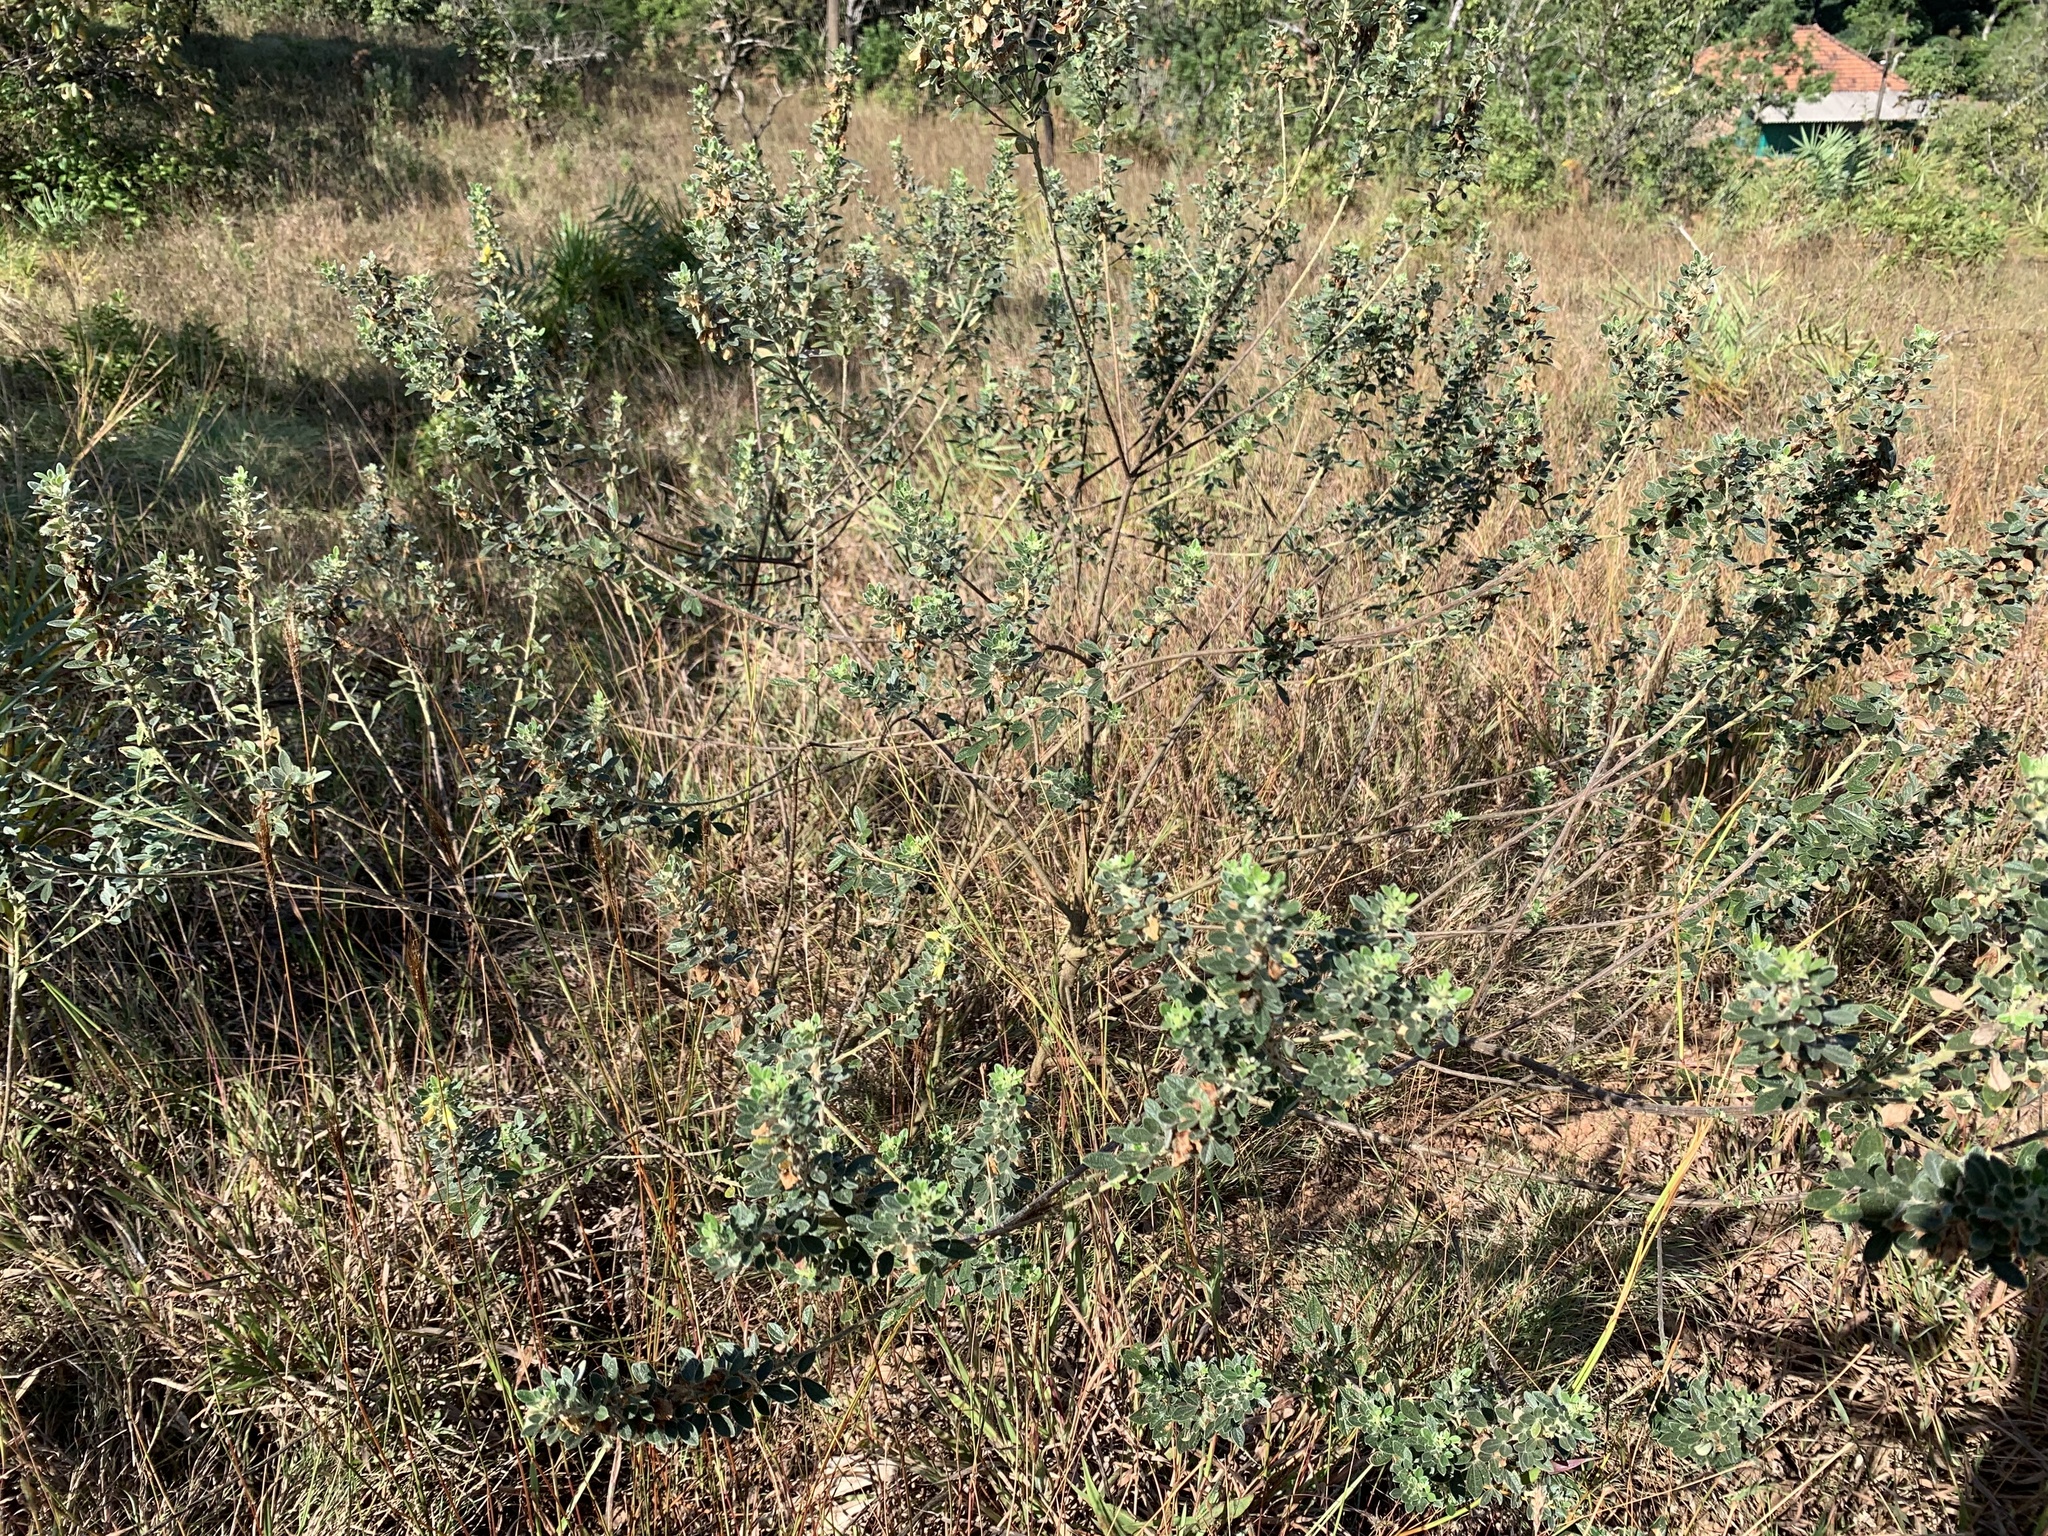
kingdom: Plantae
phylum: Tracheophyta
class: Magnoliopsida
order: Fabales
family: Fabaceae
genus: Cajanus
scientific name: Cajanus lineatus
